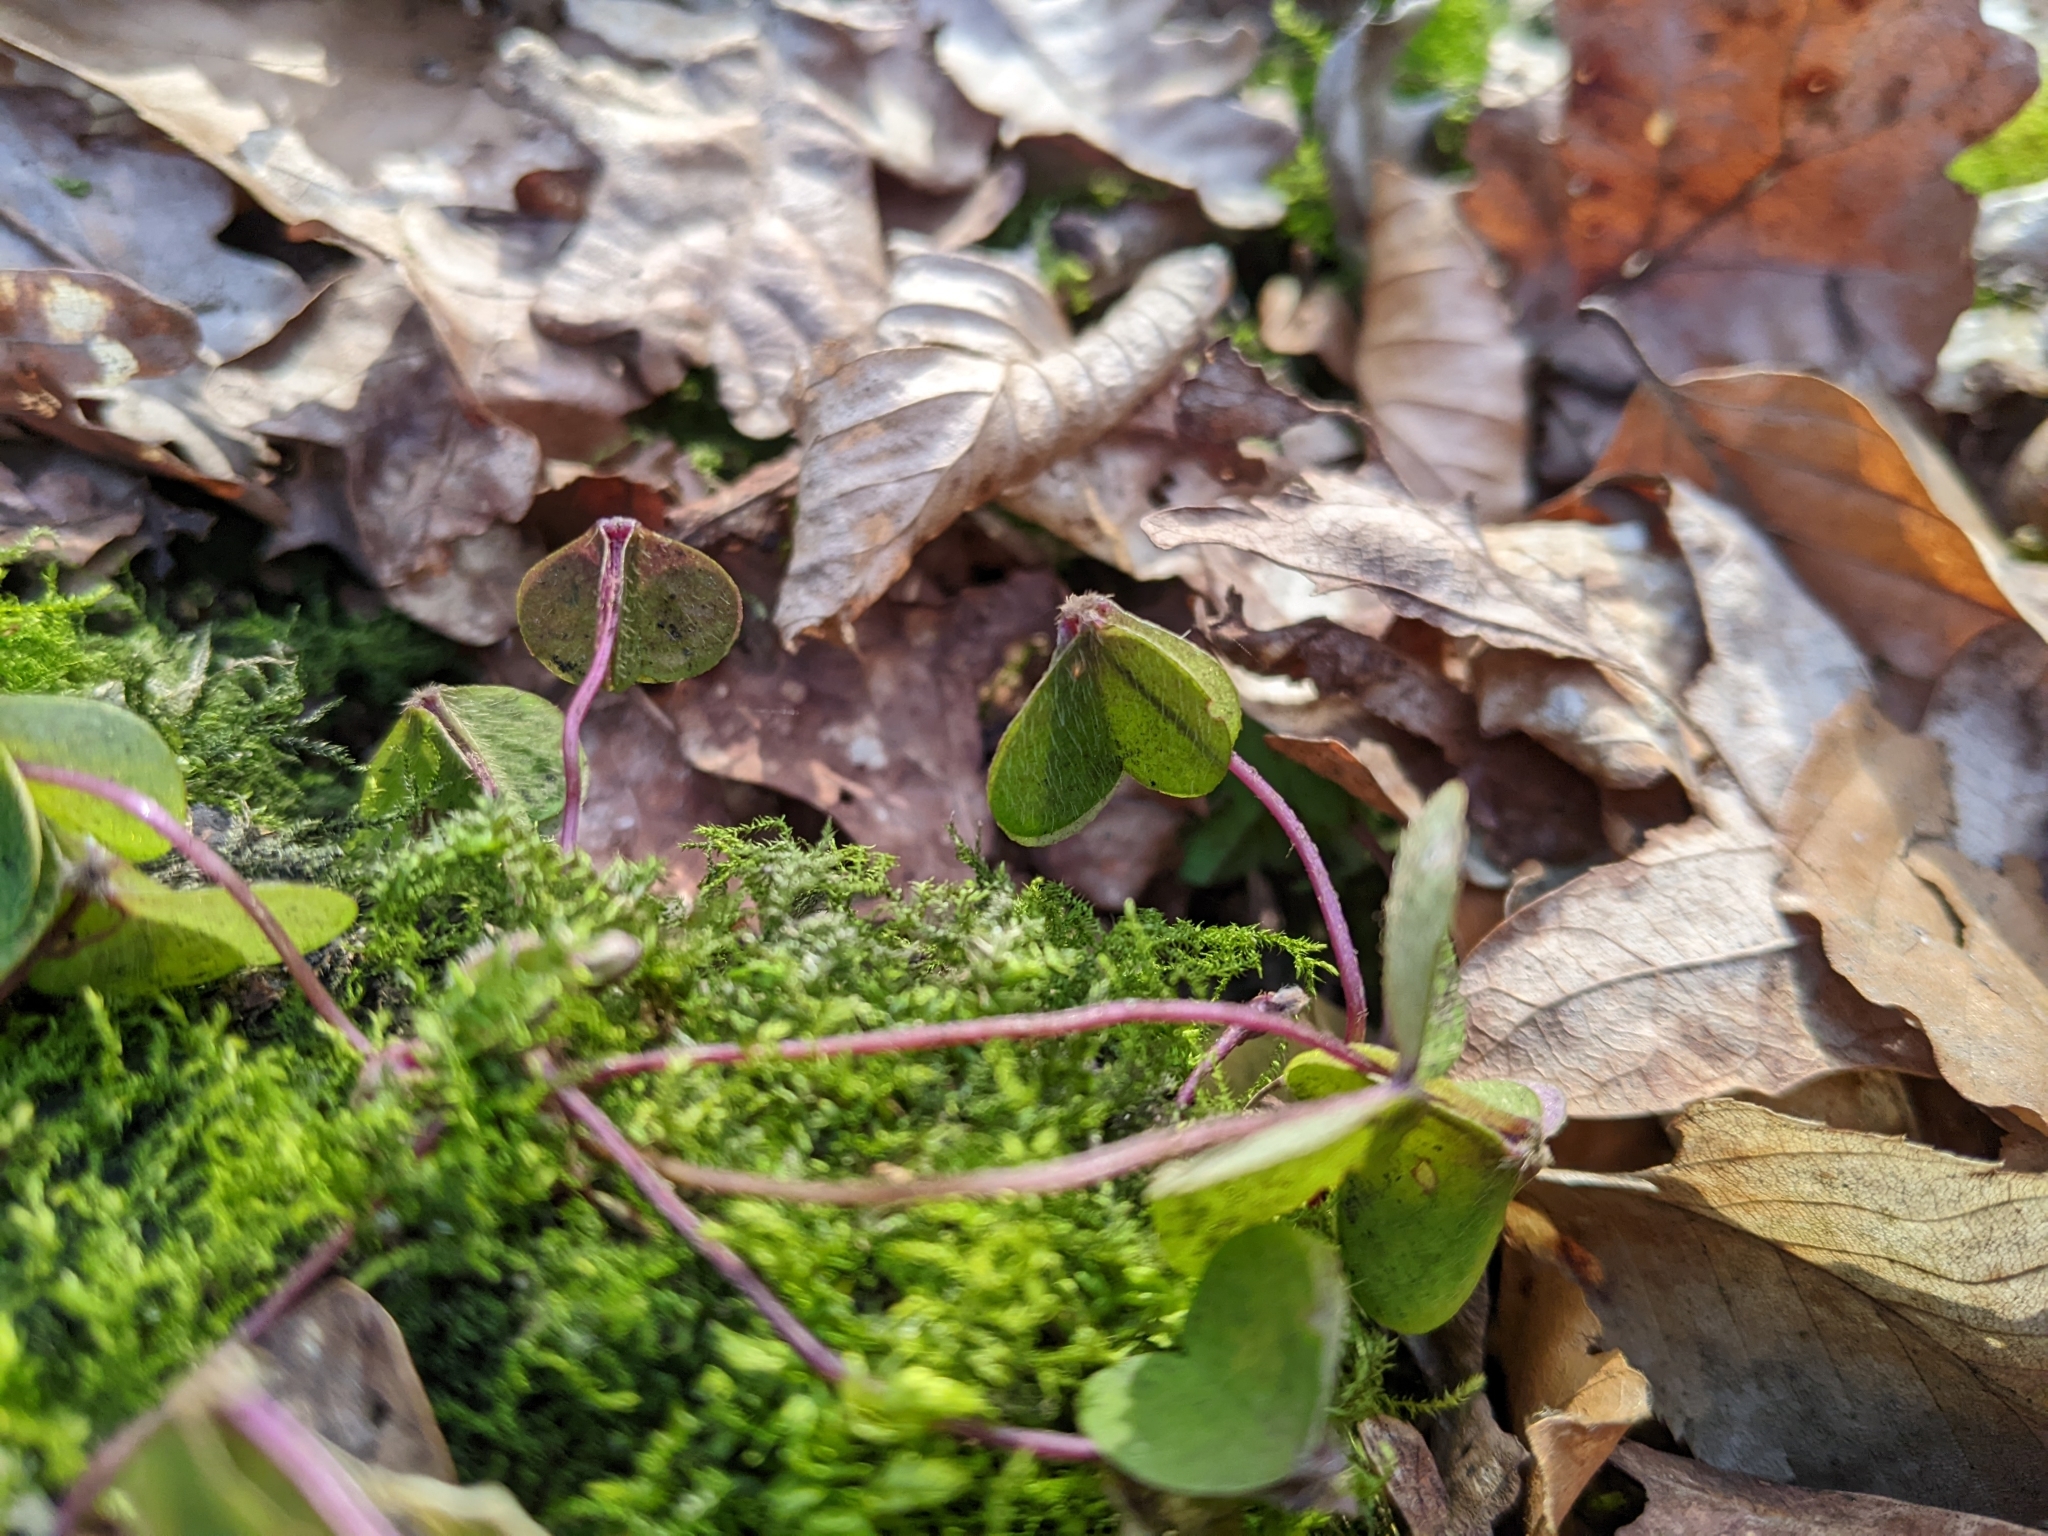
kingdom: Plantae
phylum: Tracheophyta
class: Magnoliopsida
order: Oxalidales
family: Oxalidaceae
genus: Oxalis
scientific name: Oxalis acetosella
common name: Wood-sorrel
